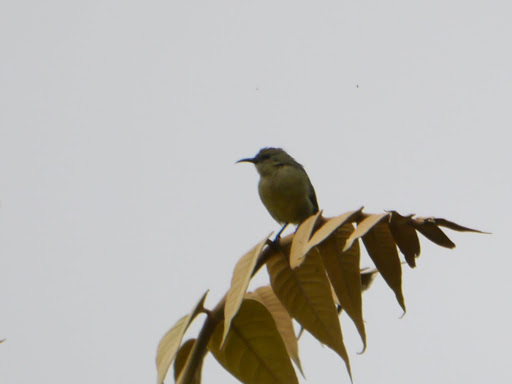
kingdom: Animalia
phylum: Chordata
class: Aves
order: Passeriformes
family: Nectariniidae
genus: Cinnyris
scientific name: Cinnyris reichenowi
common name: Northern double-collared sunbird
